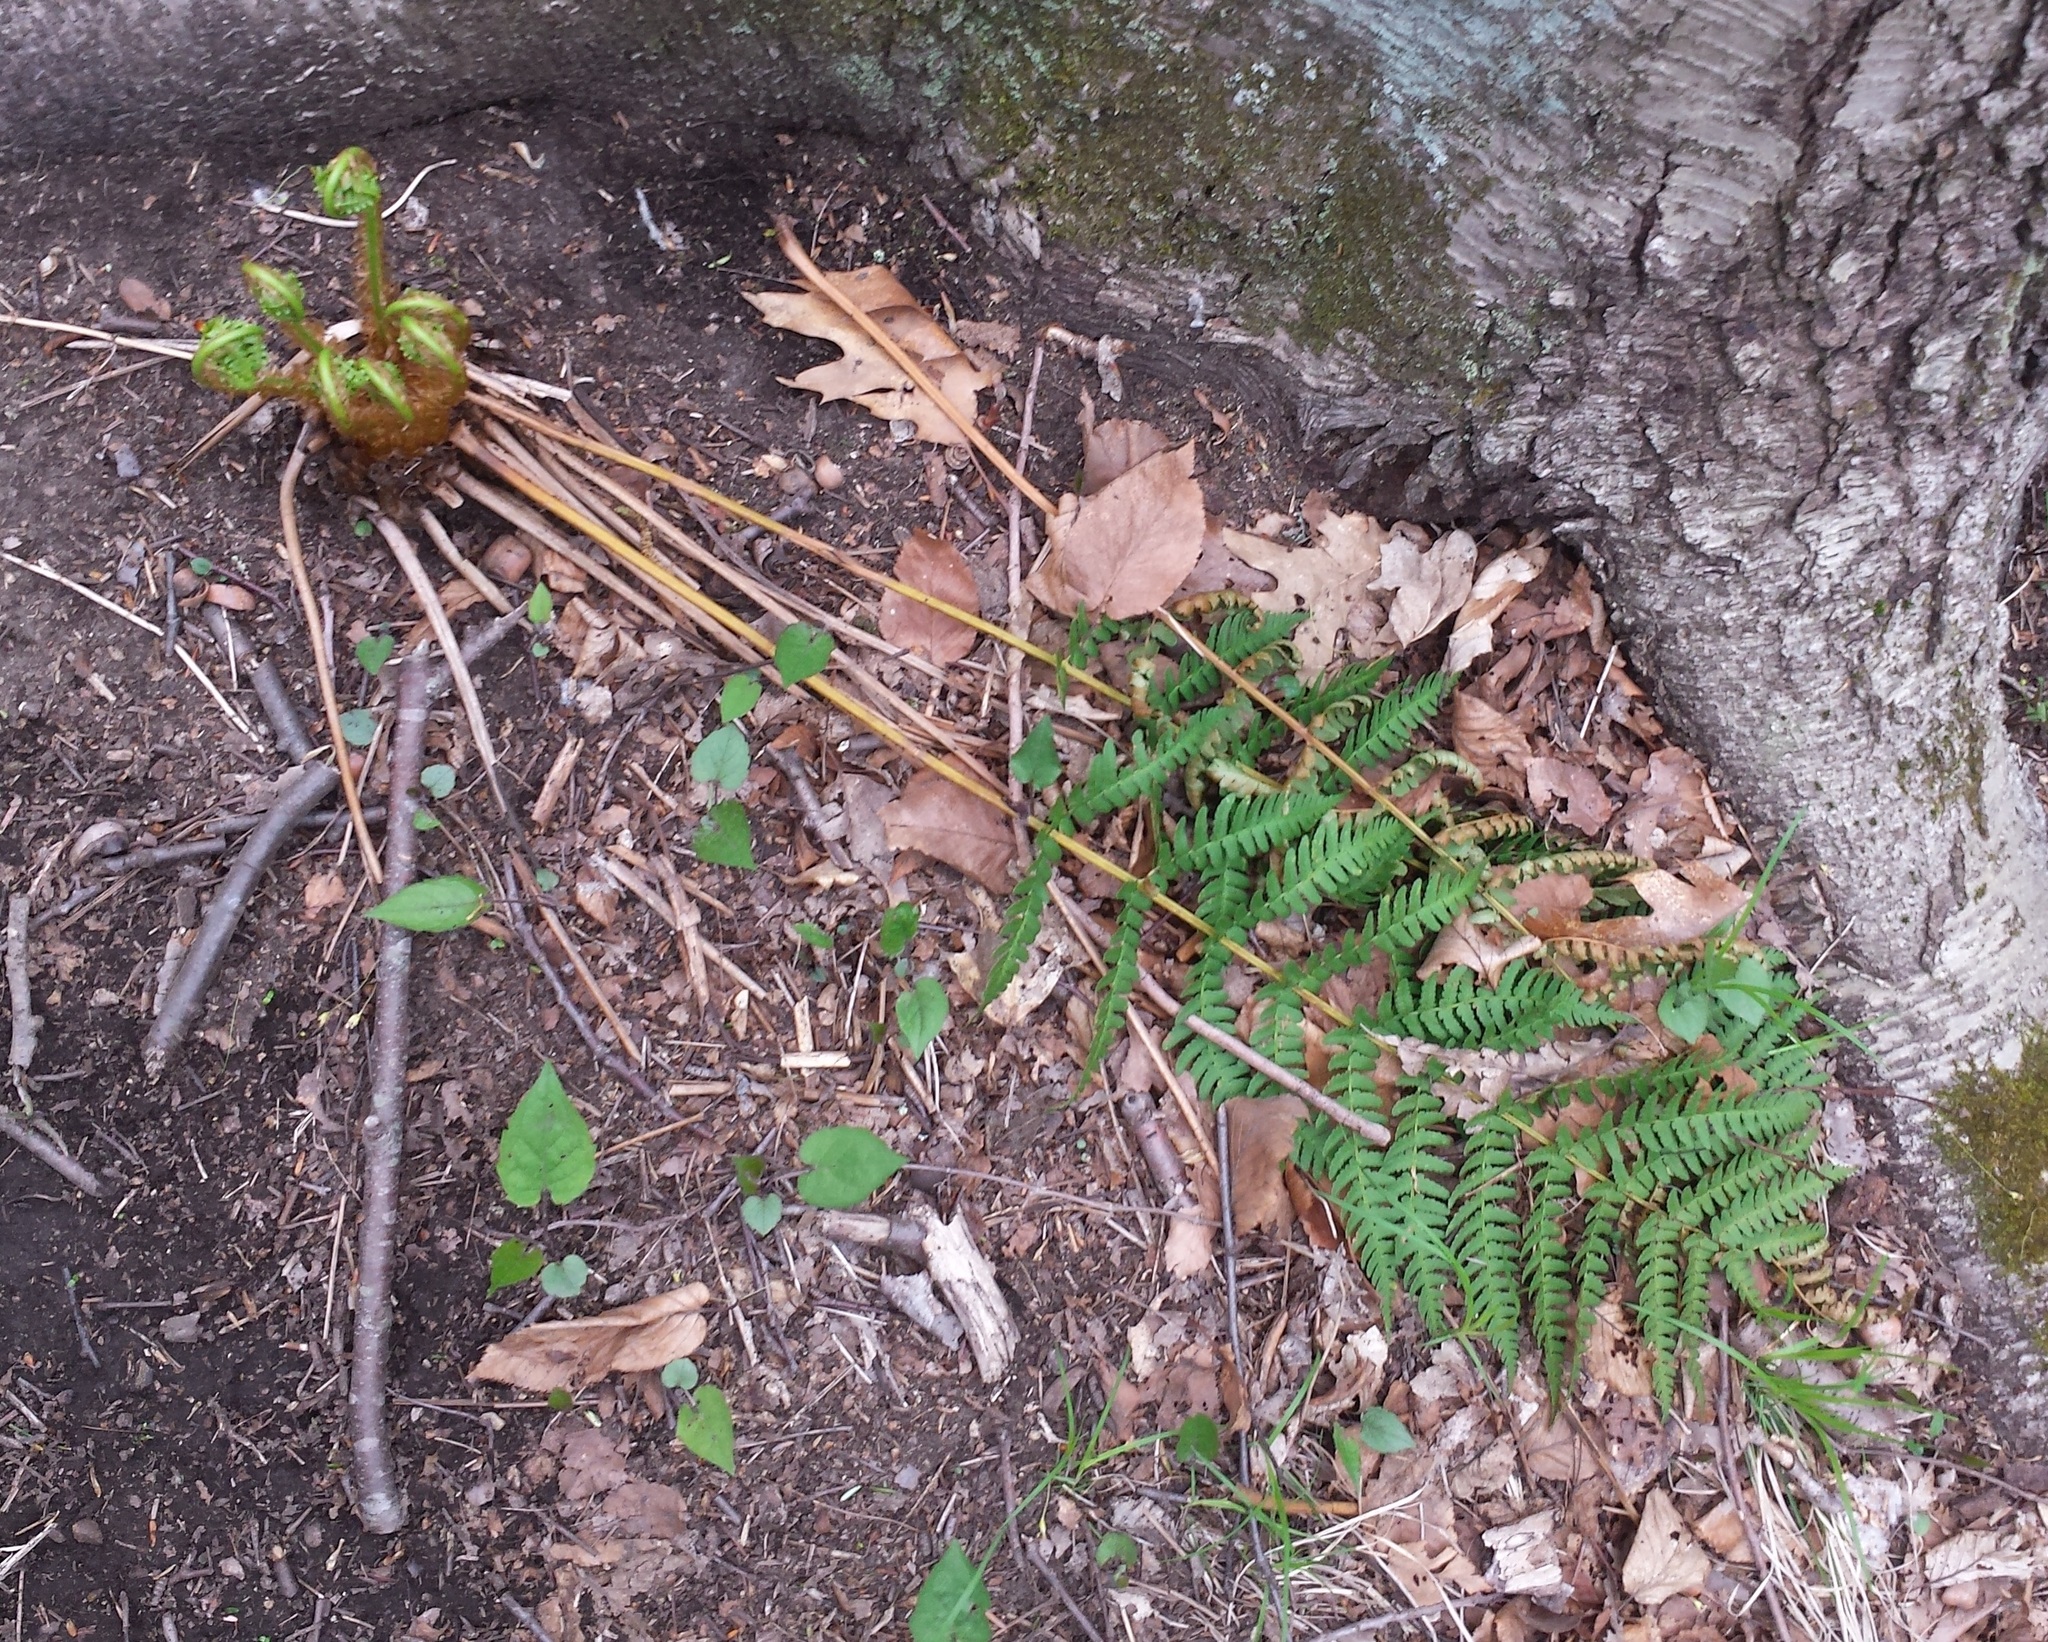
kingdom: Plantae
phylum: Tracheophyta
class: Polypodiopsida
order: Polypodiales
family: Dryopteridaceae
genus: Dryopteris
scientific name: Dryopteris marginalis
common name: Marginal wood fern
